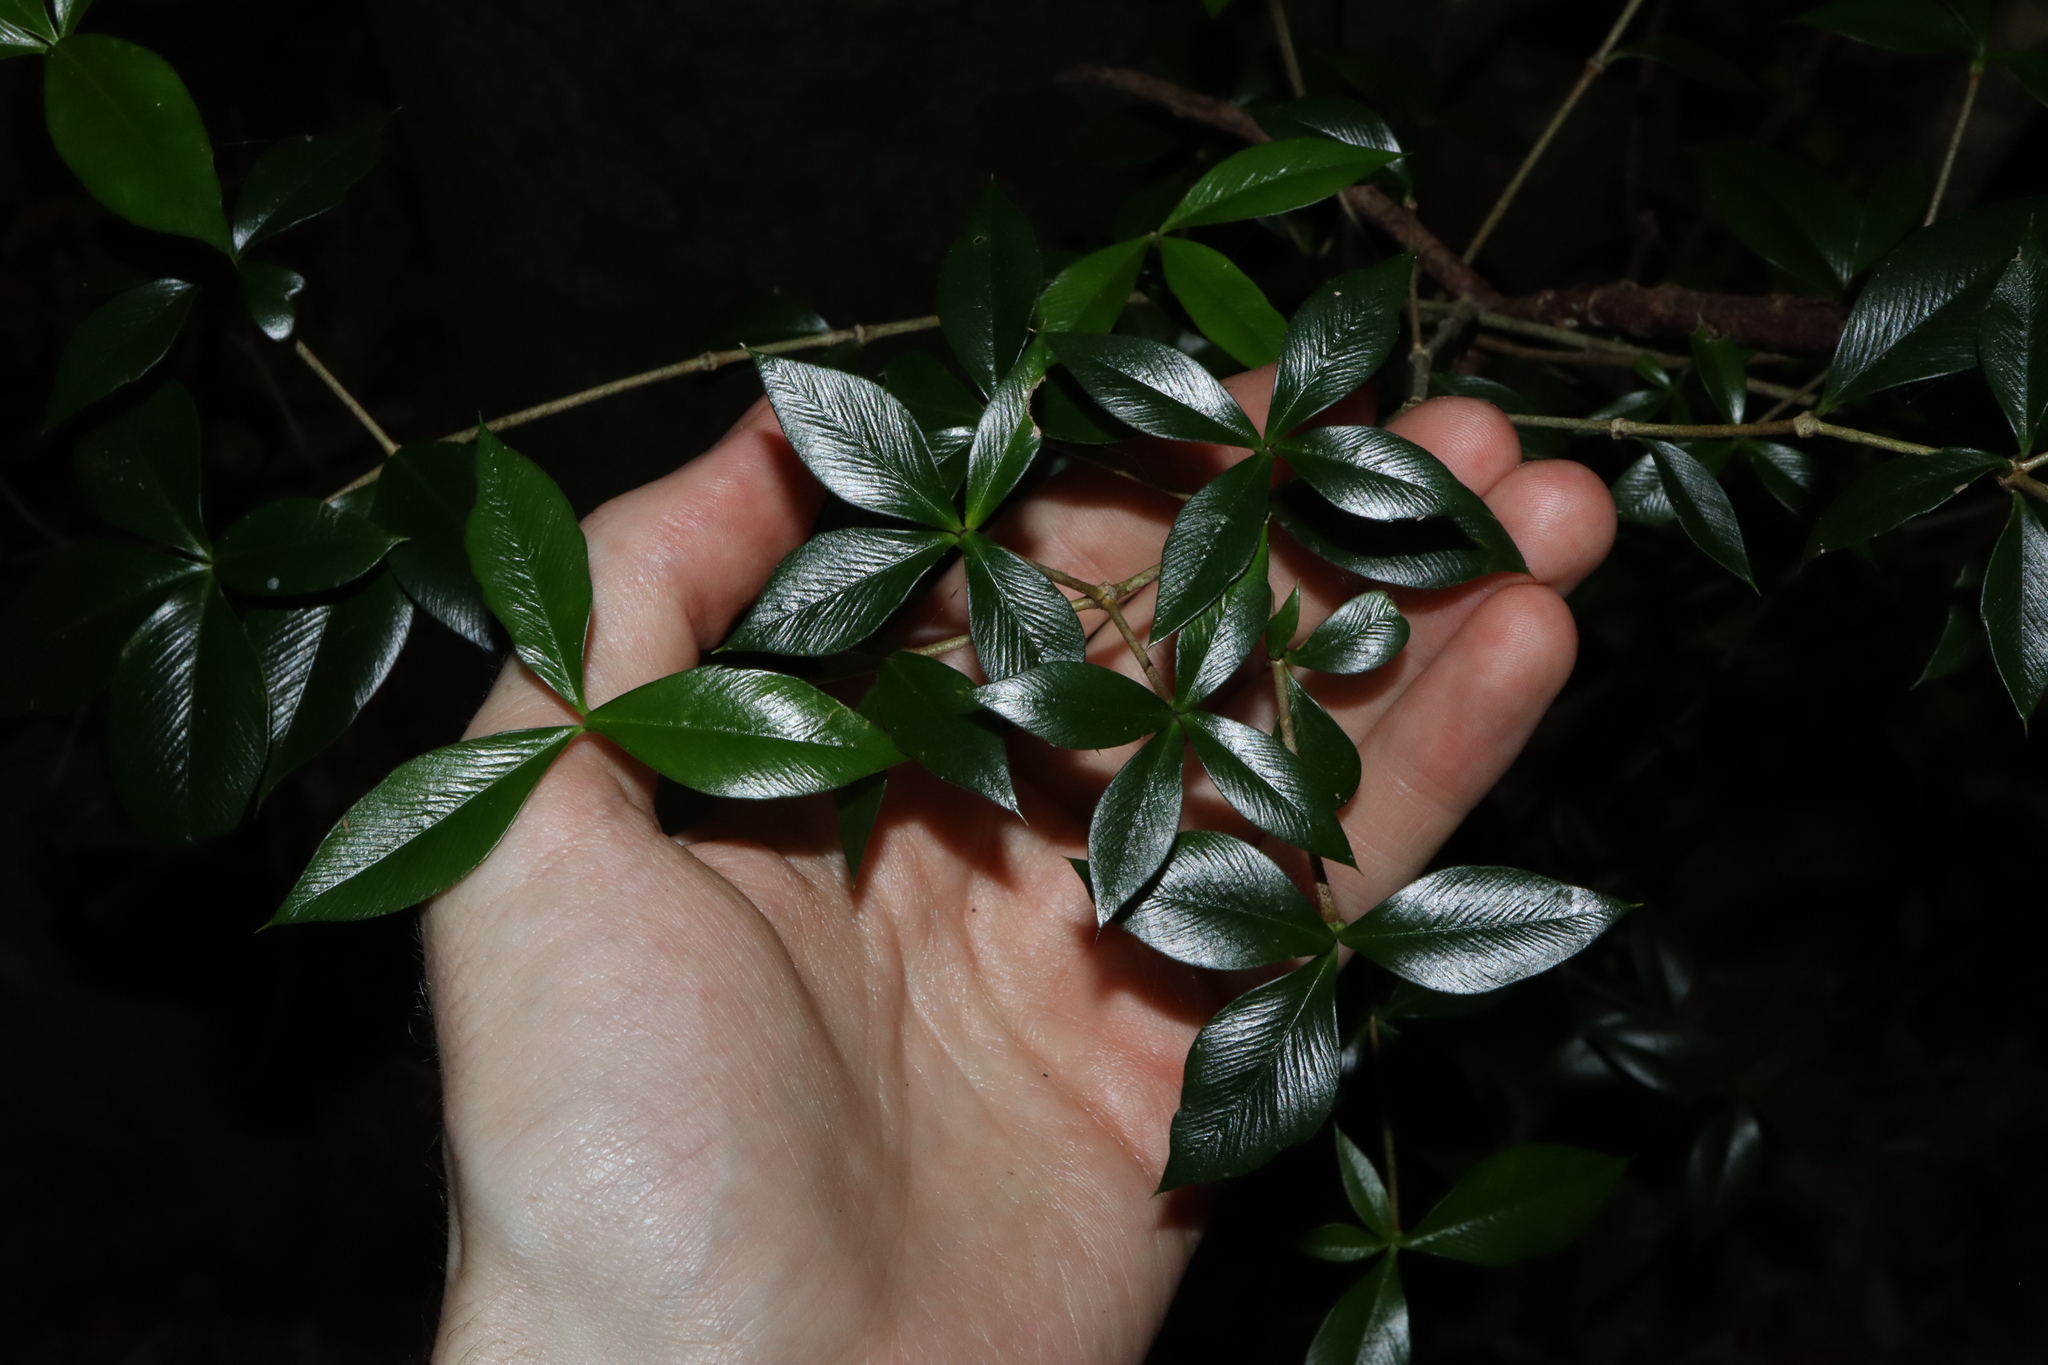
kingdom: Plantae
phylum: Tracheophyta
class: Magnoliopsida
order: Gentianales
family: Apocynaceae
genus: Alyxia
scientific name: Alyxia ruscifolia
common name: Chainfruit
